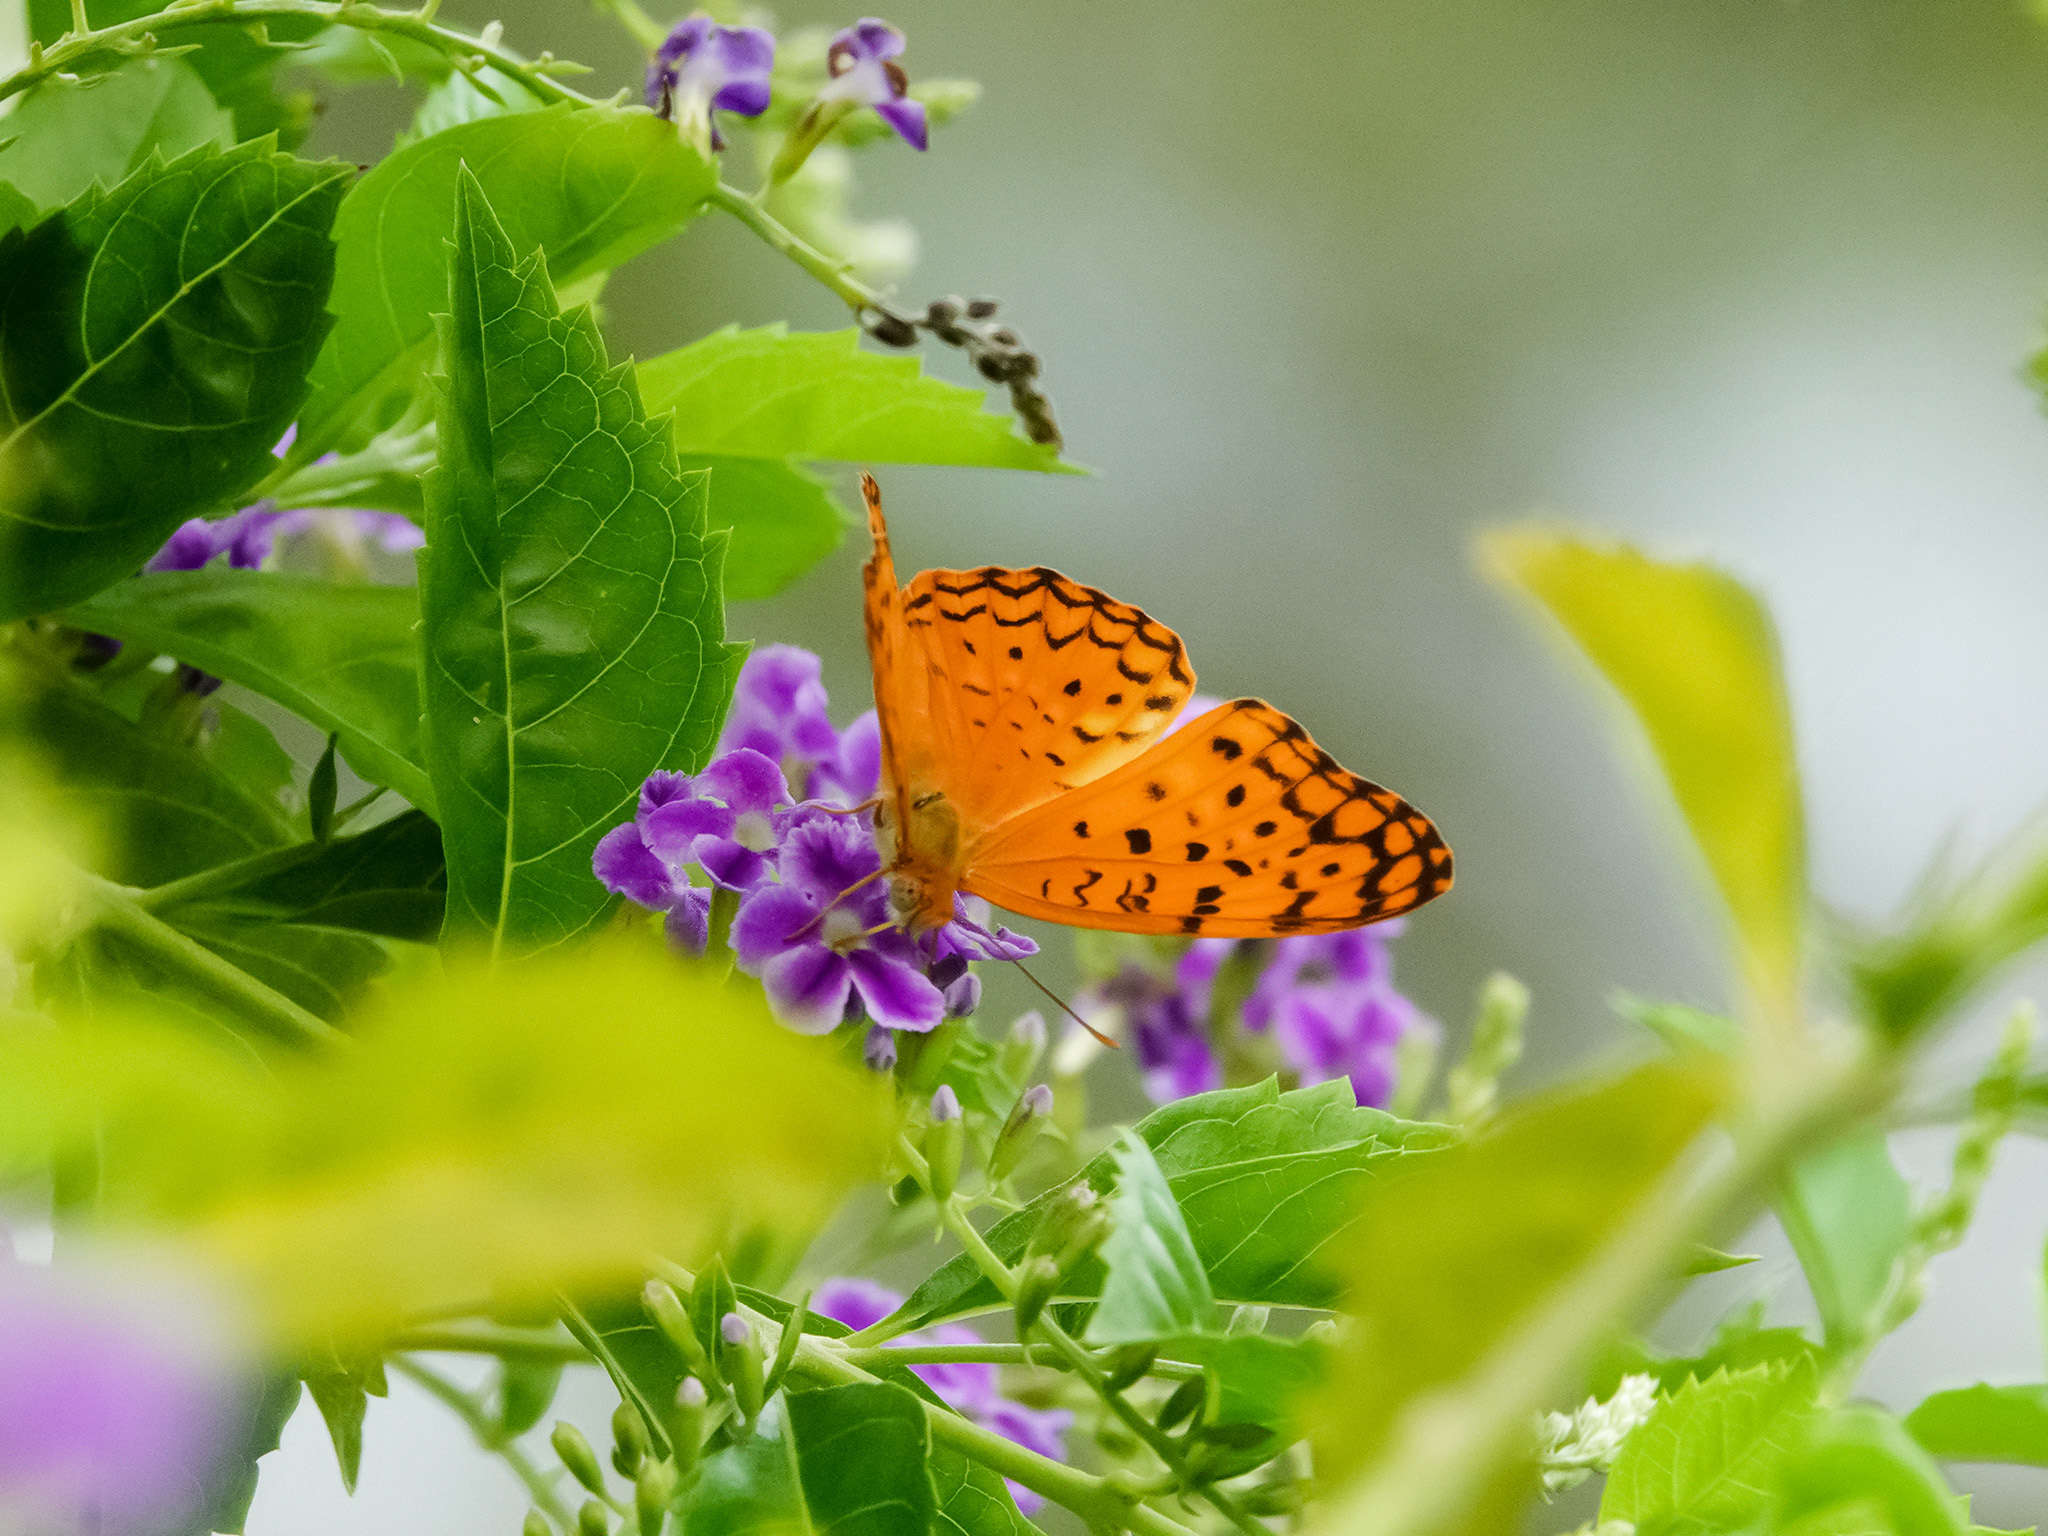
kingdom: Animalia
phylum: Arthropoda
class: Insecta
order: Lepidoptera
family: Nymphalidae
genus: Phalanta
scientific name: Phalanta phalantha
